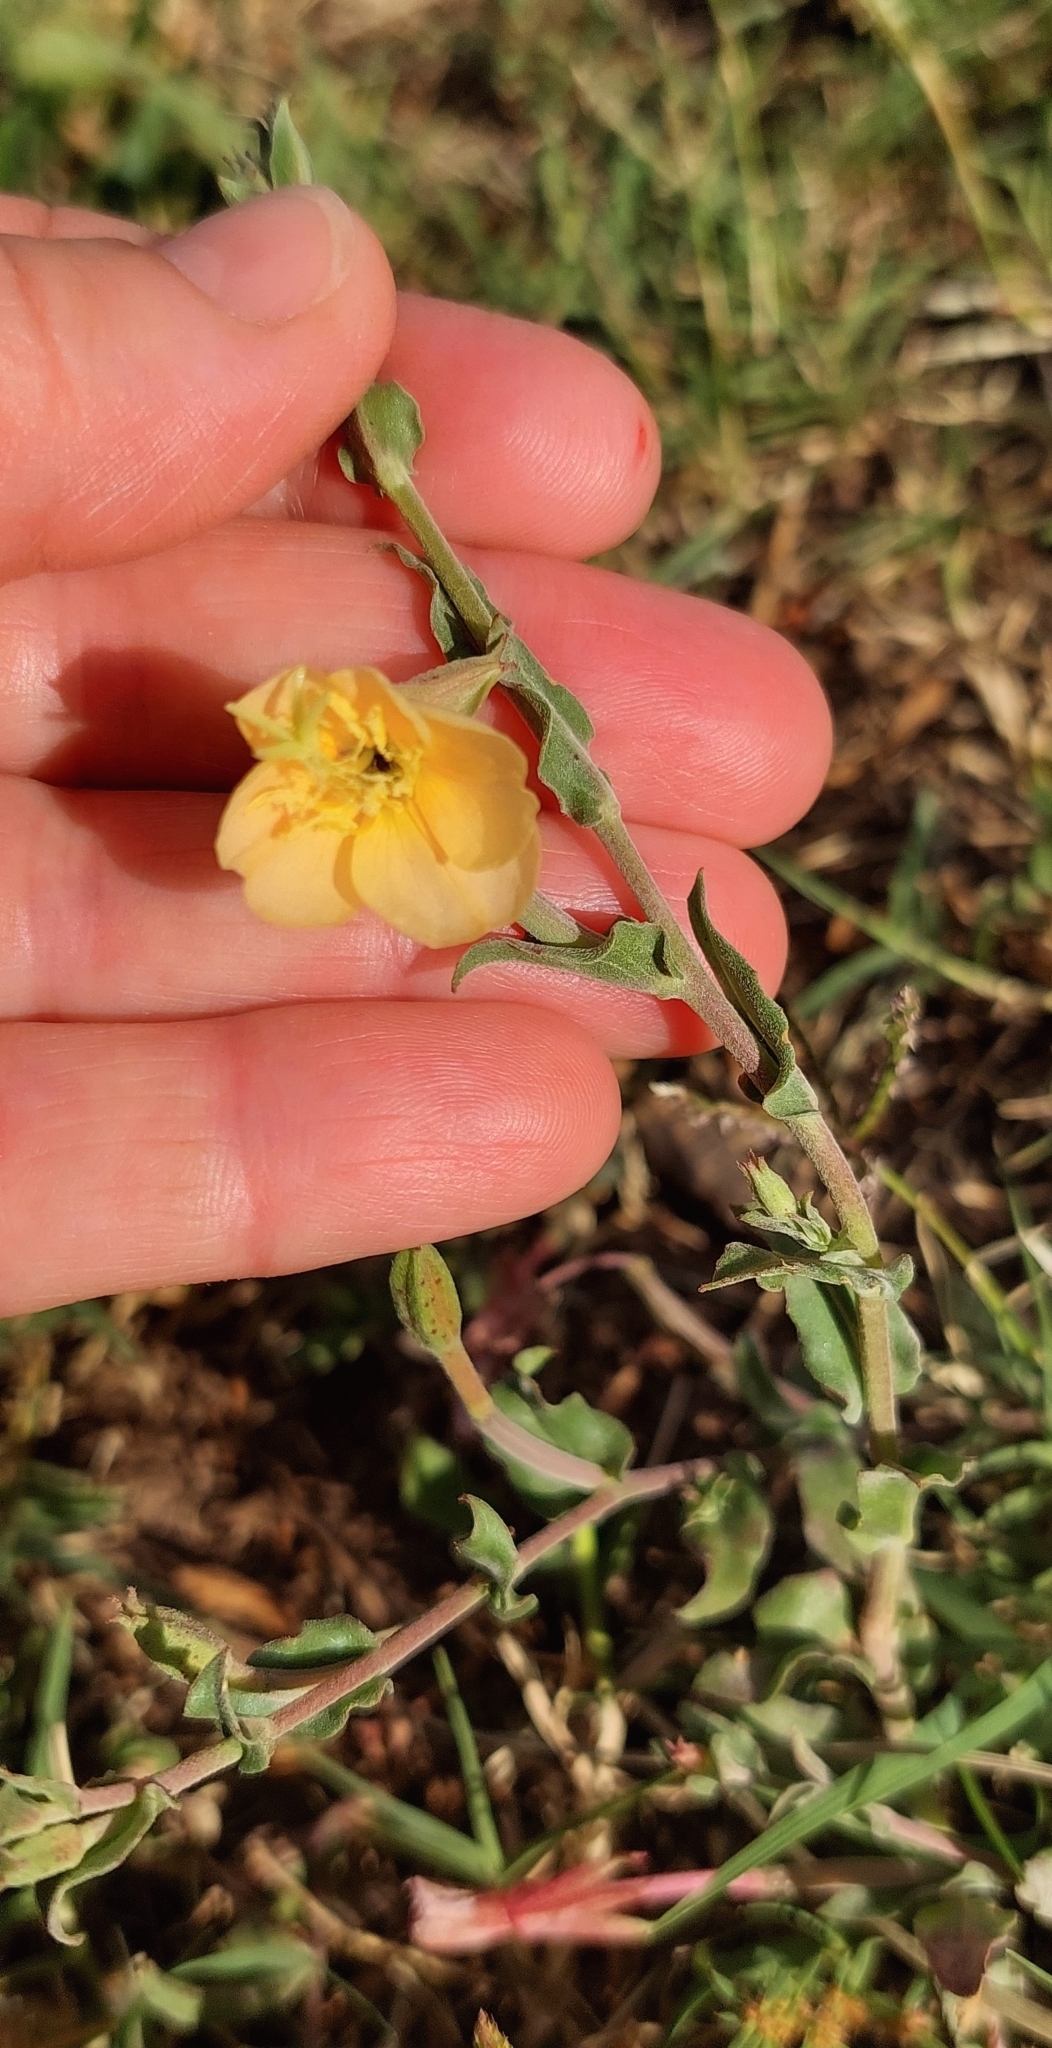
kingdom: Plantae
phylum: Tracheophyta
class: Magnoliopsida
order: Myrtales
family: Onagraceae
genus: Oenothera
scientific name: Oenothera affinis
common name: Longflower evening primrose
